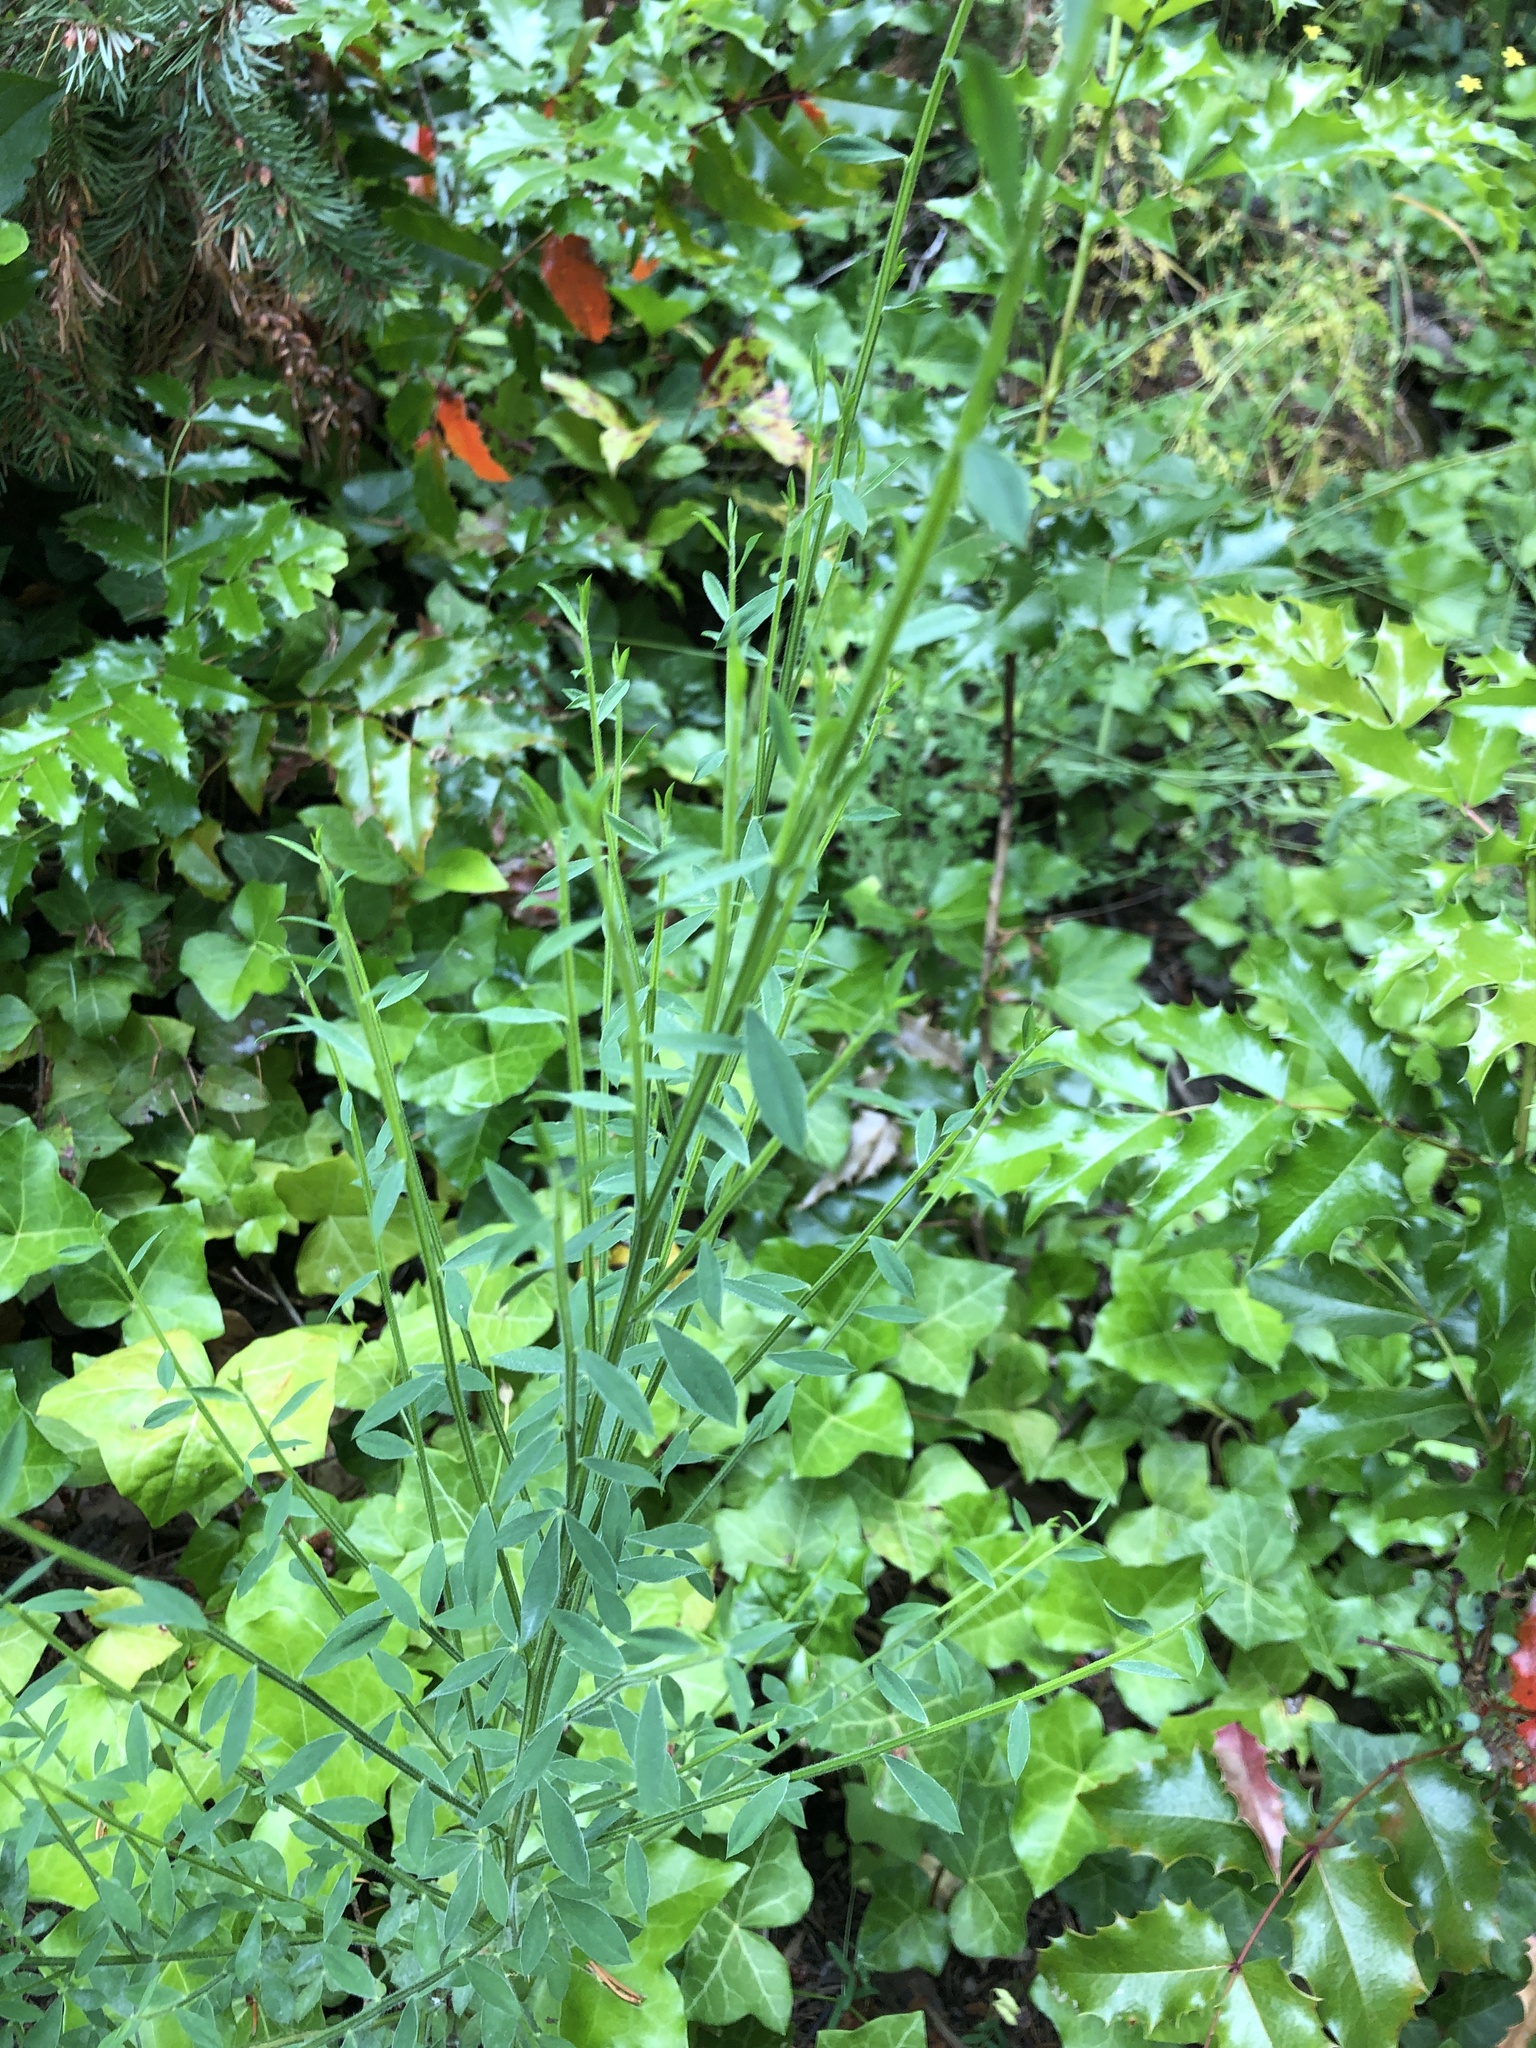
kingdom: Plantae
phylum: Tracheophyta
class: Magnoliopsida
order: Fabales
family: Fabaceae
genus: Cytisus
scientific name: Cytisus scoparius
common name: Scotch broom
